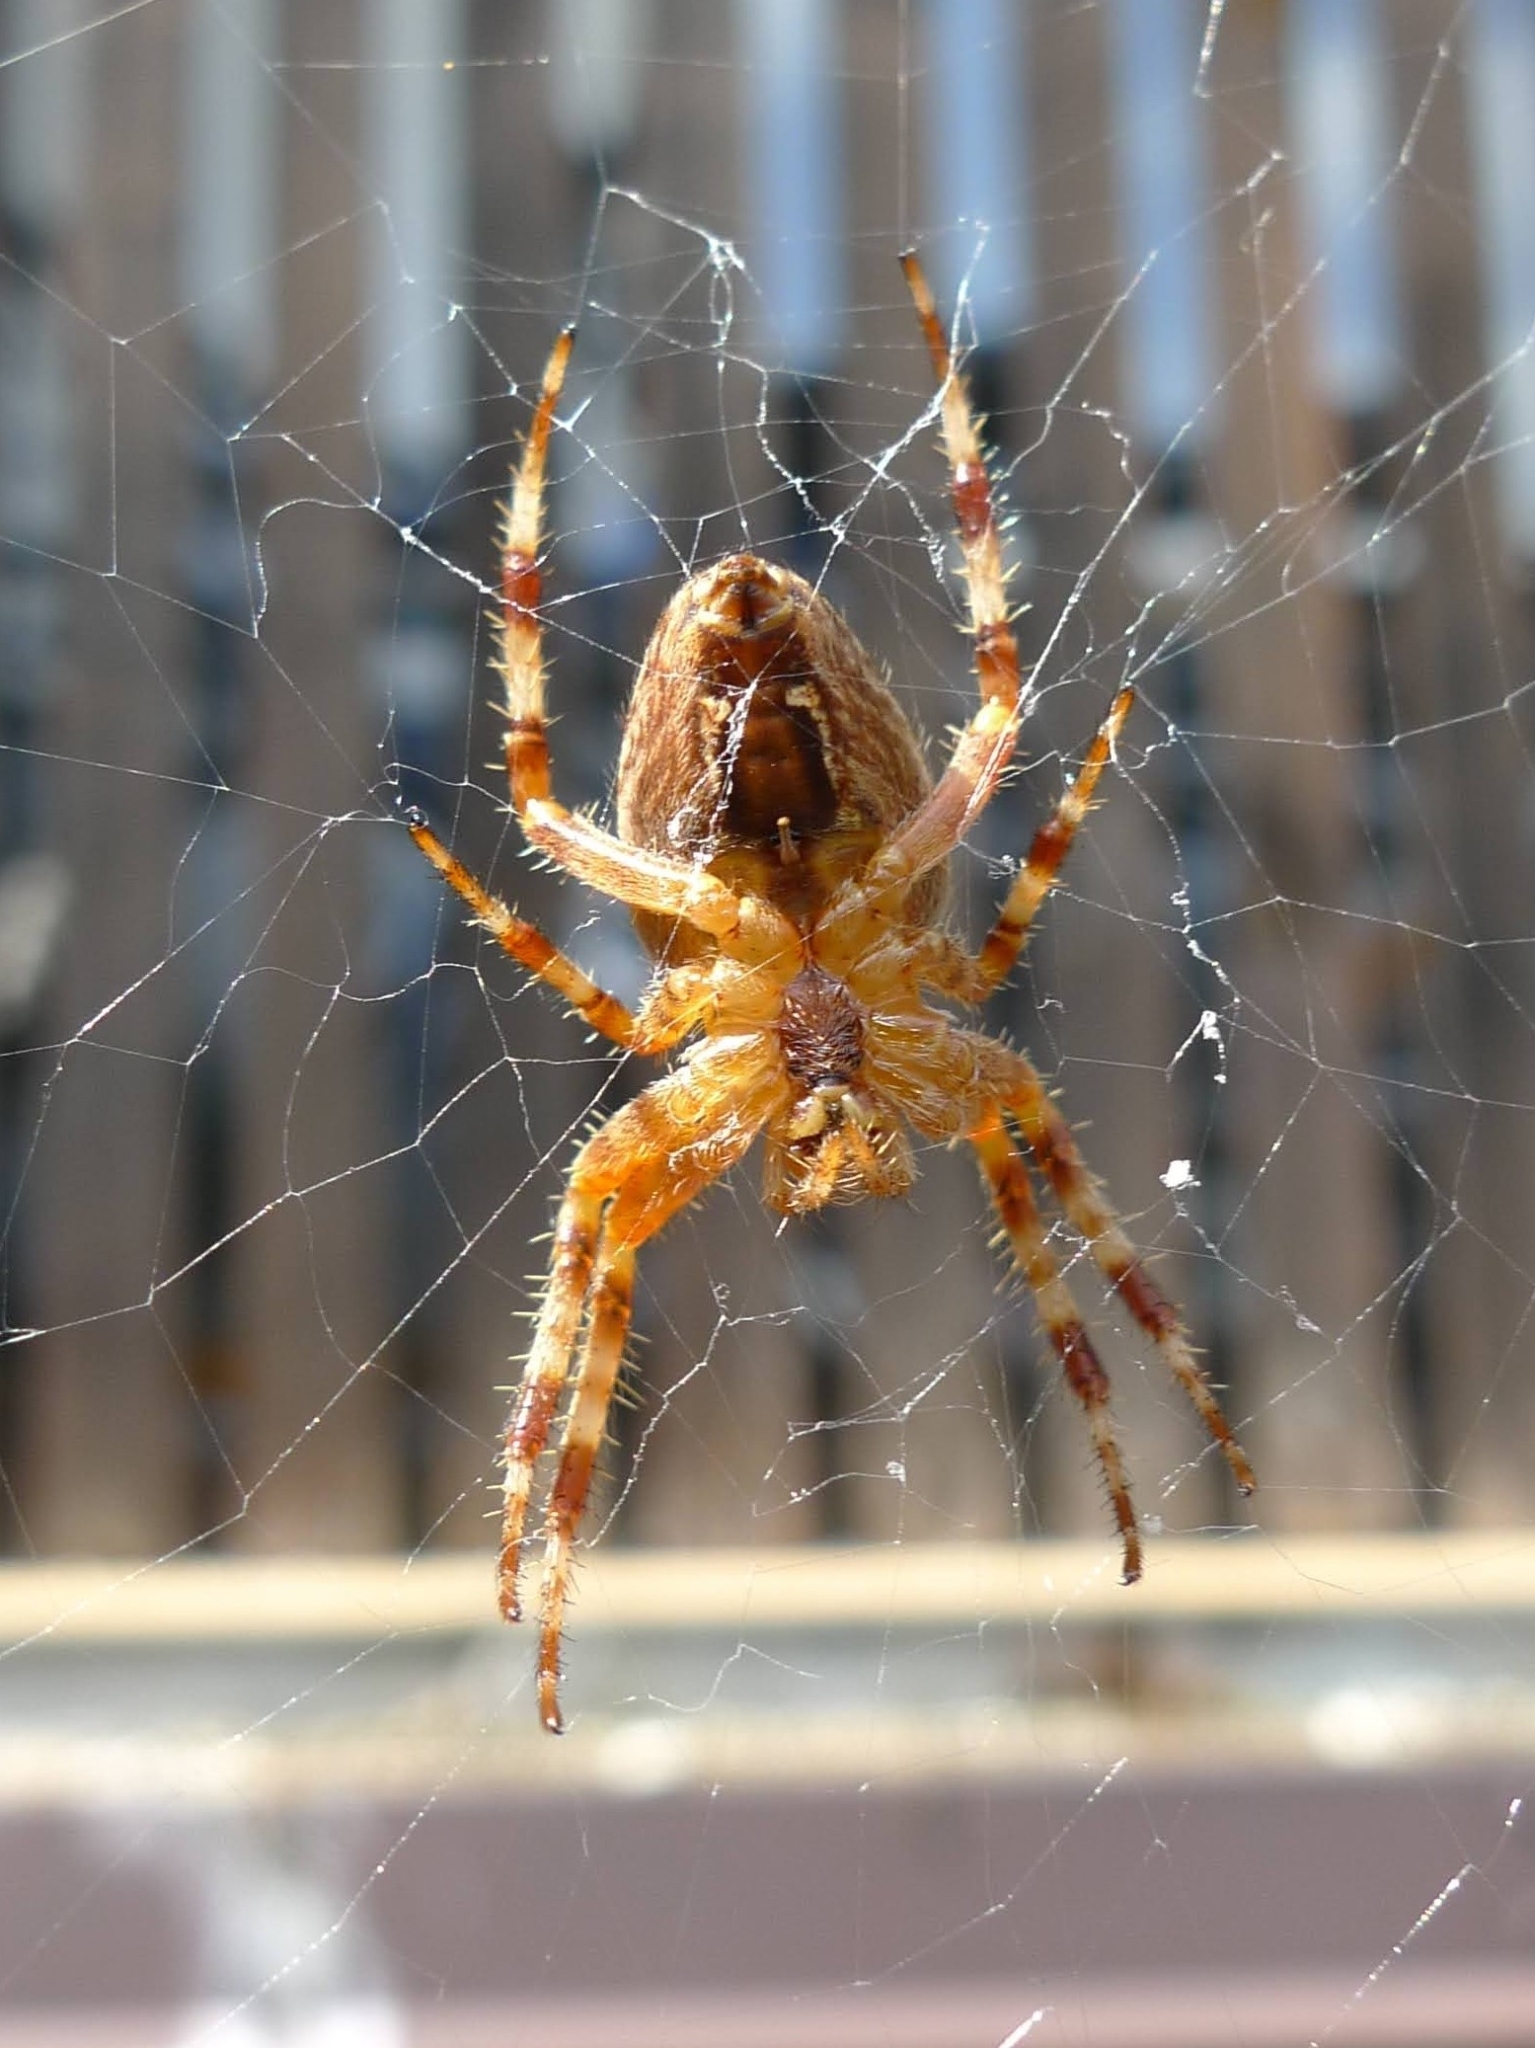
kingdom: Animalia
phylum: Arthropoda
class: Arachnida
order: Araneae
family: Araneidae
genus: Araneus
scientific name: Araneus diadematus
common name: Cross orbweaver
